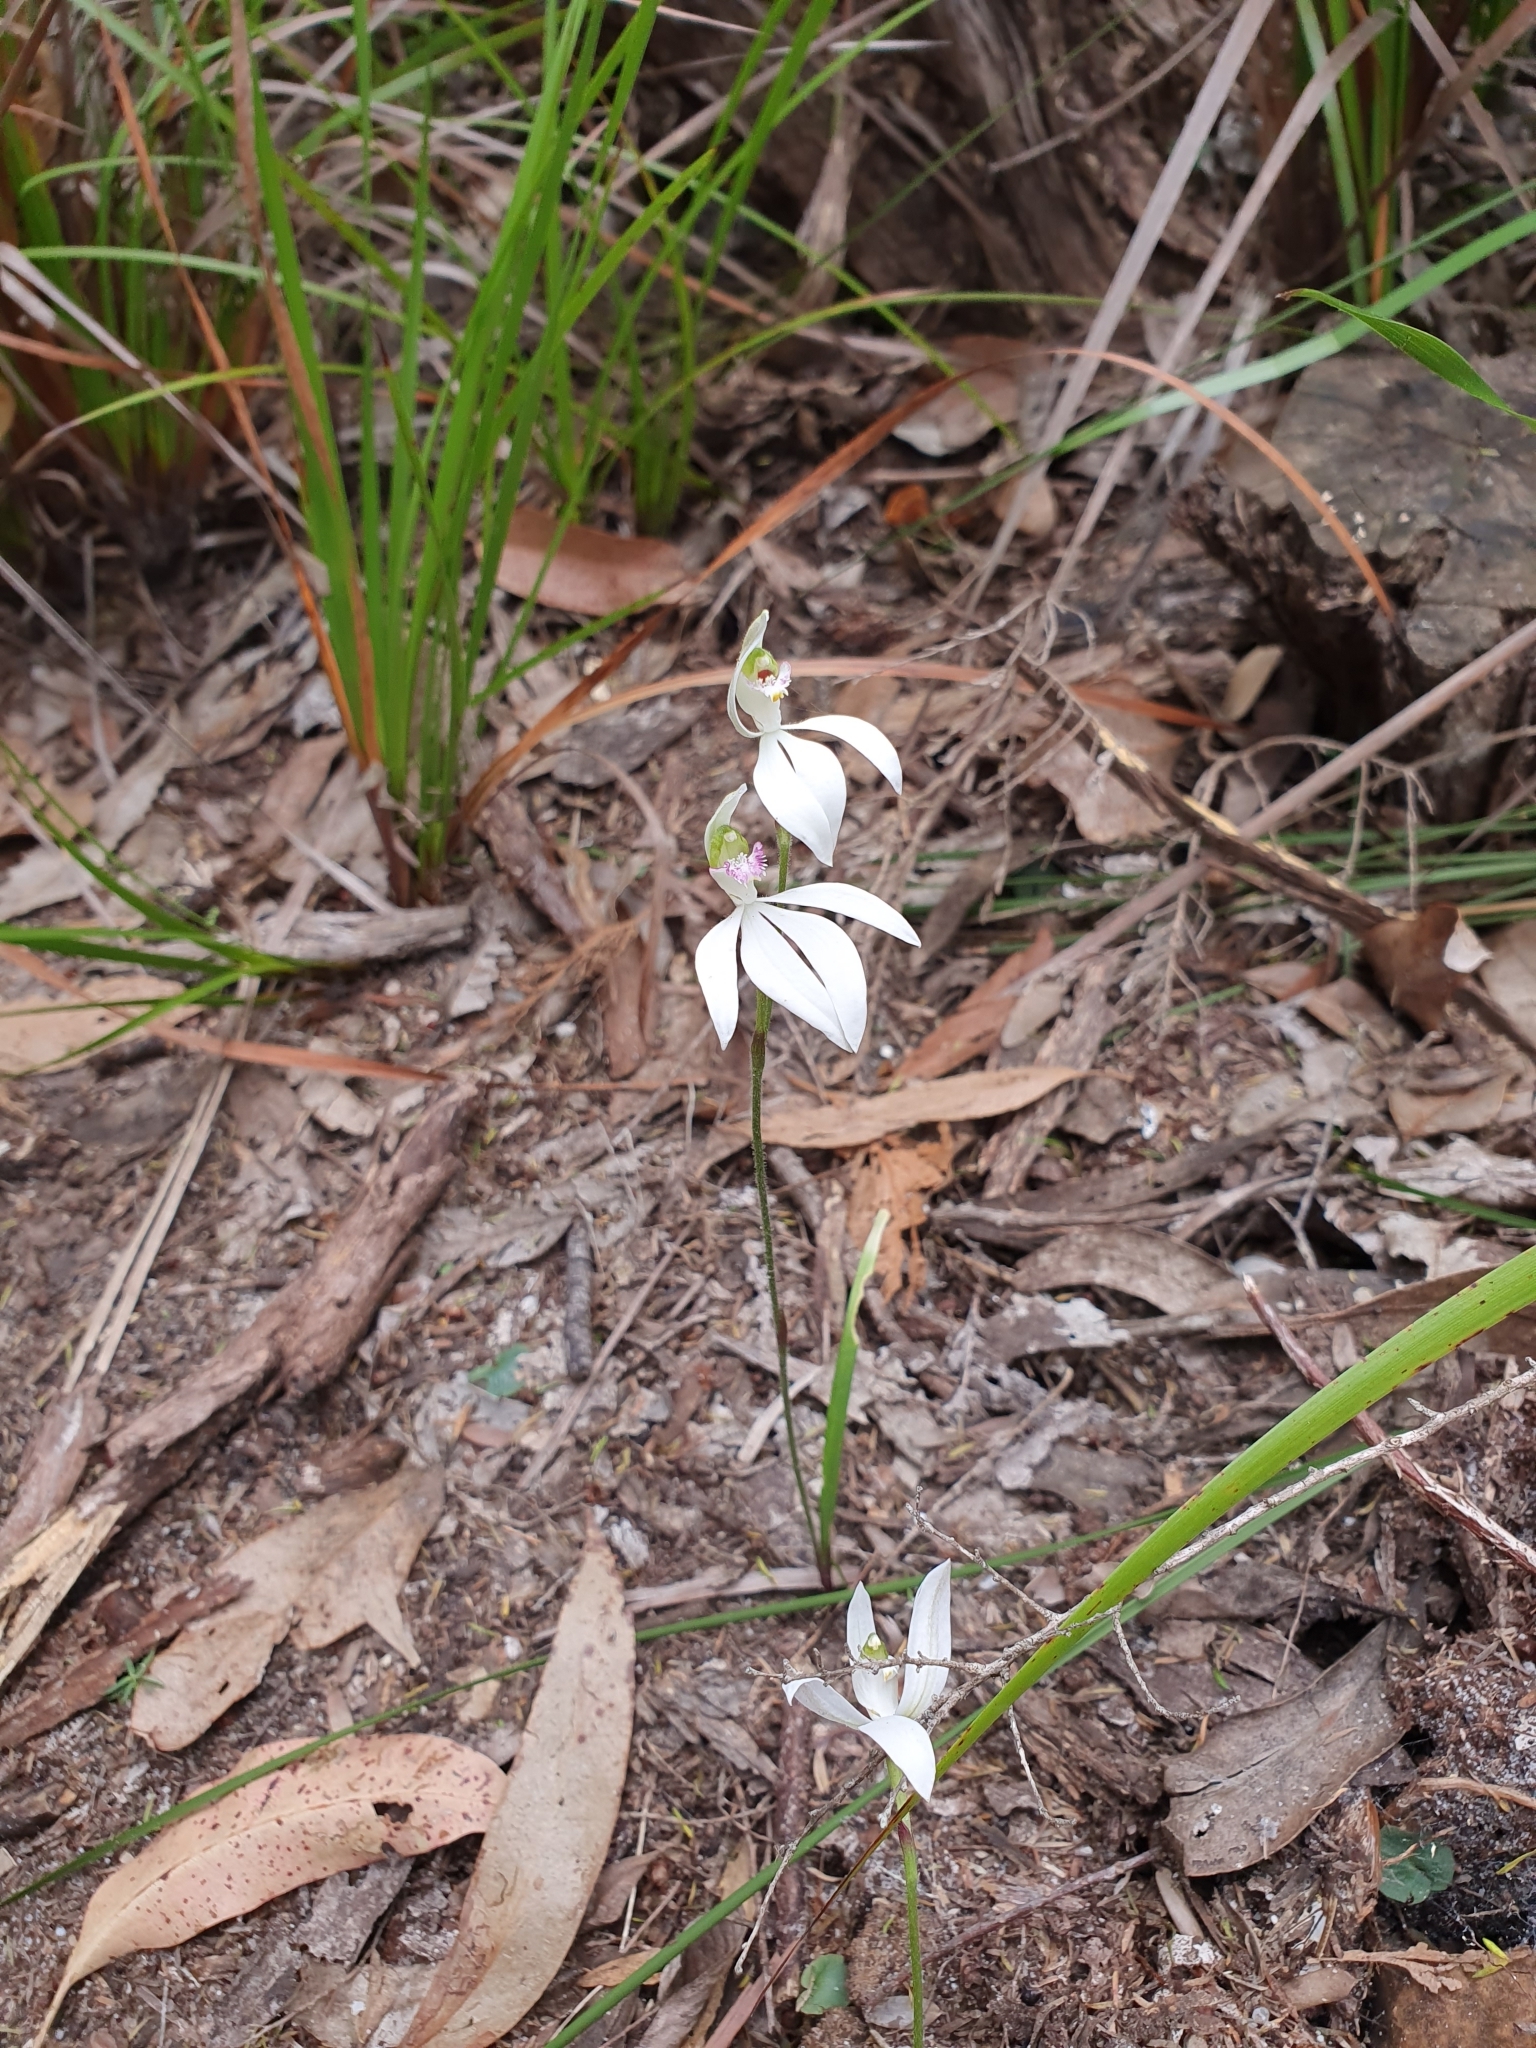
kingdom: Plantae
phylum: Tracheophyta
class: Liliopsida
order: Asparagales
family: Orchidaceae
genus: Caladenia
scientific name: Caladenia picta
